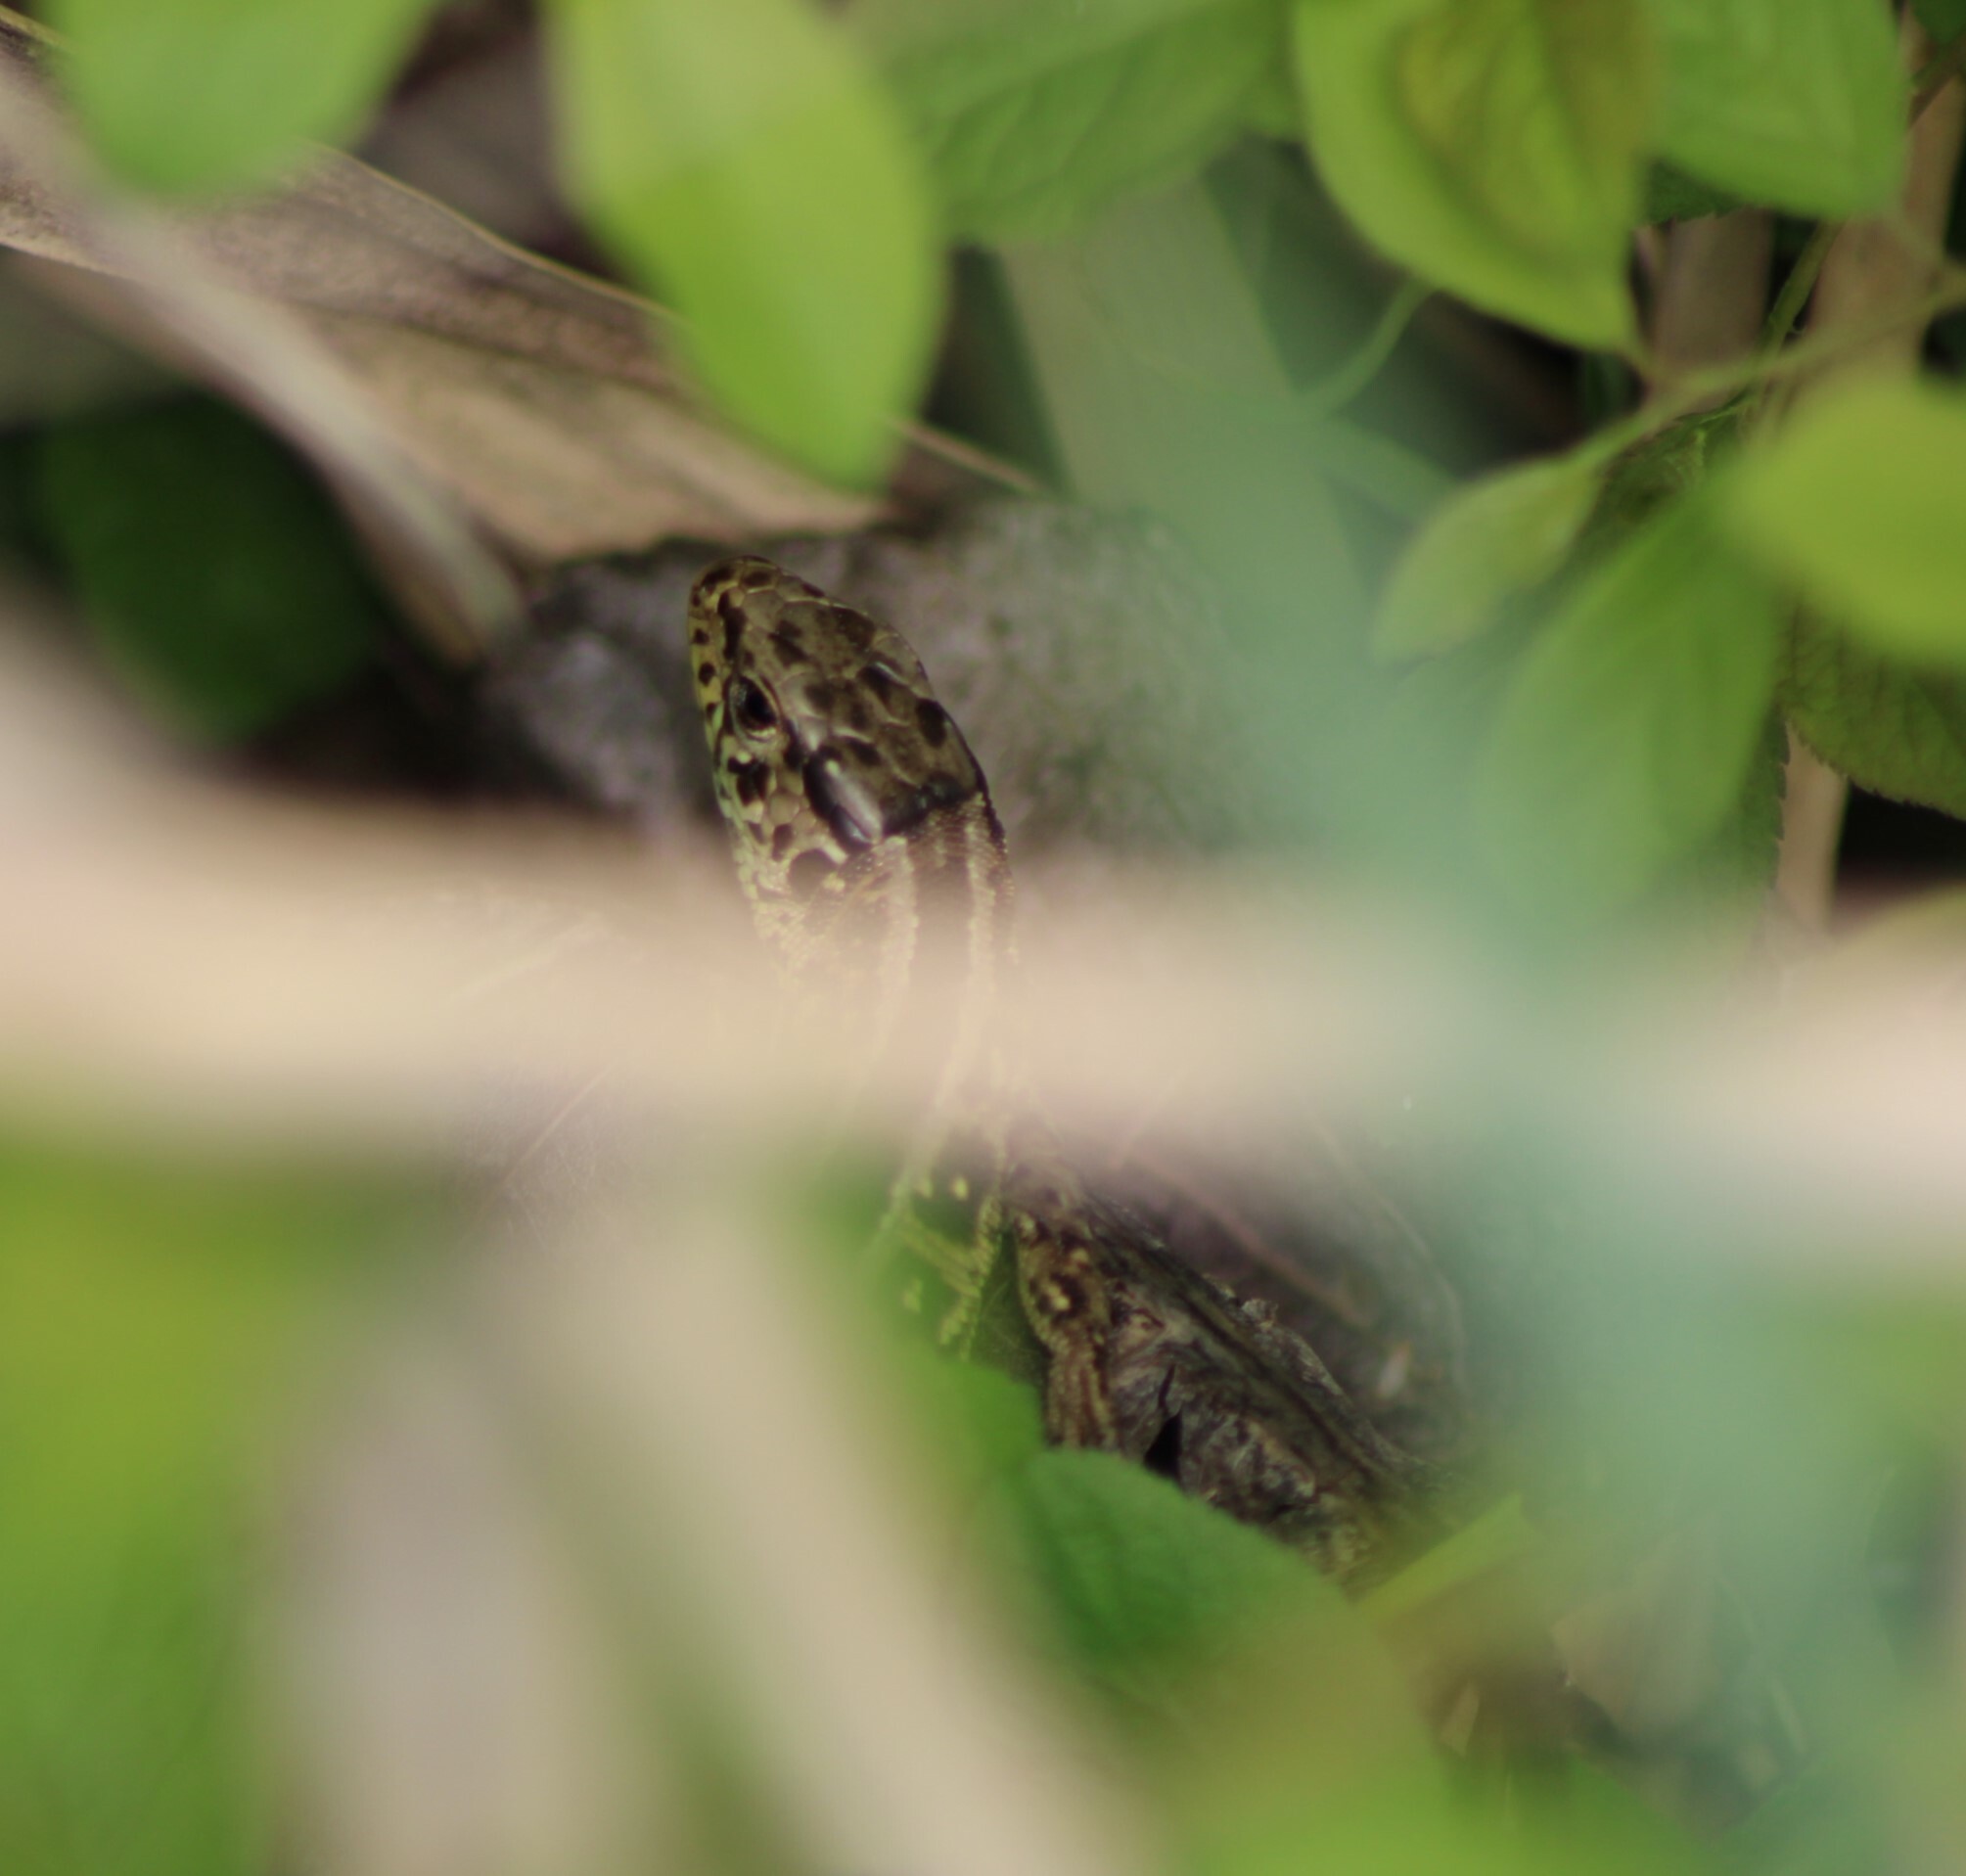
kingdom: Animalia
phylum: Chordata
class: Squamata
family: Lacertidae
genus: Lacerta
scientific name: Lacerta agilis
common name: Sand lizard
